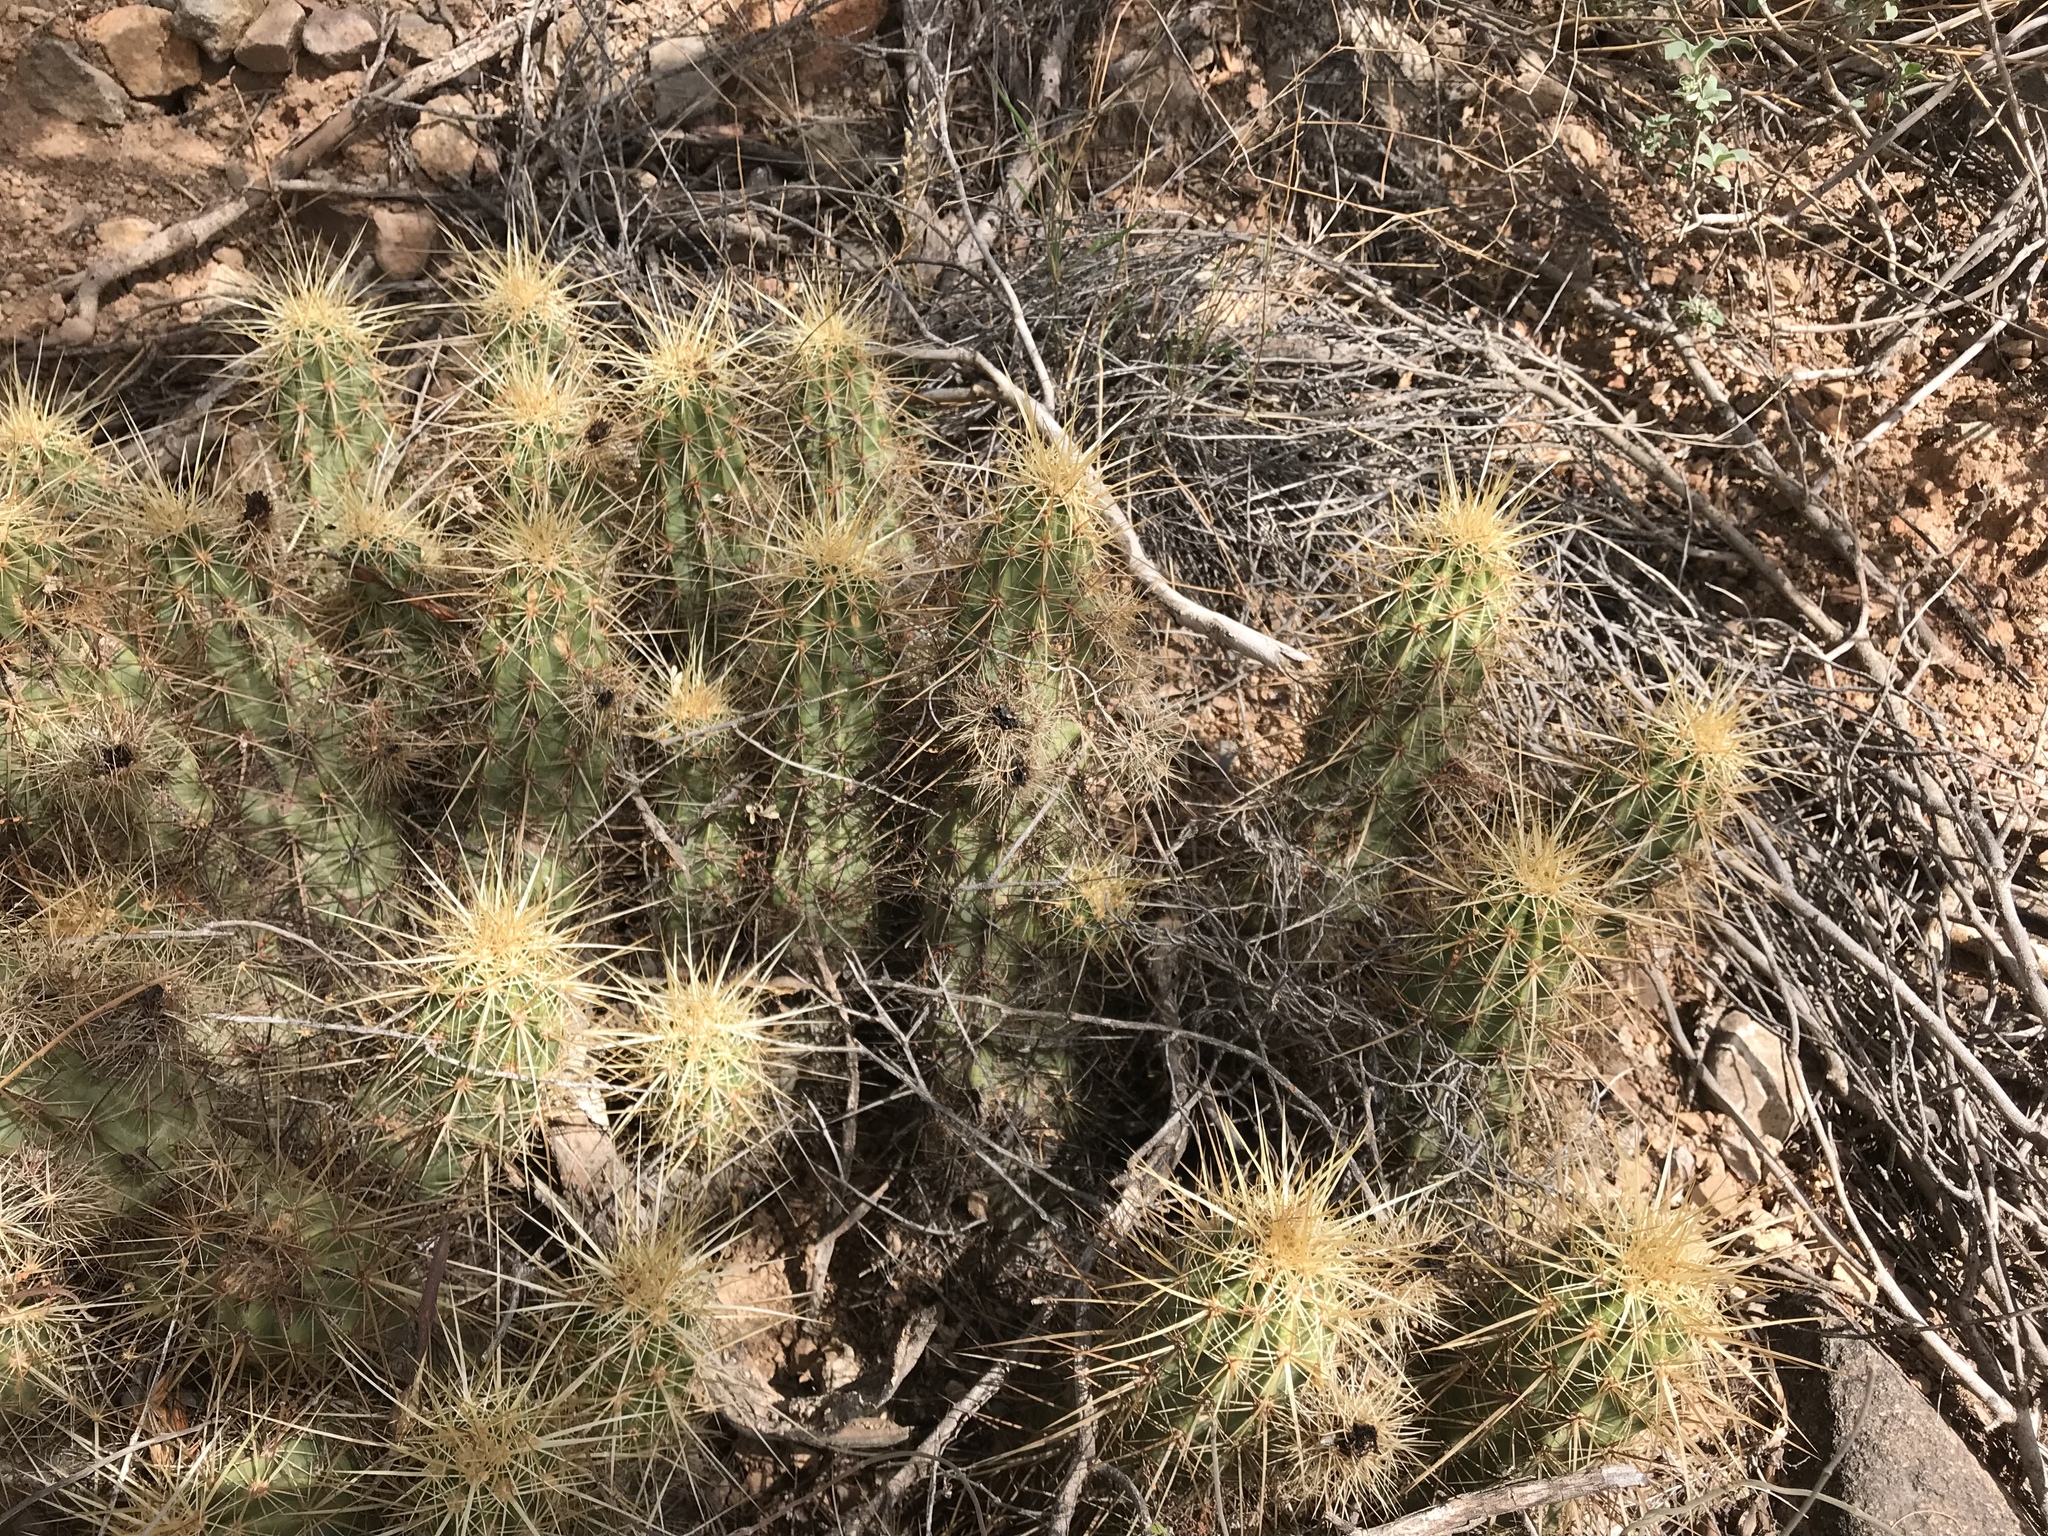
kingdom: Plantae
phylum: Tracheophyta
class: Magnoliopsida
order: Caryophyllales
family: Cactaceae
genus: Echinocereus
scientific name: Echinocereus nicholii
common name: Nichol's hedgehog cactus
